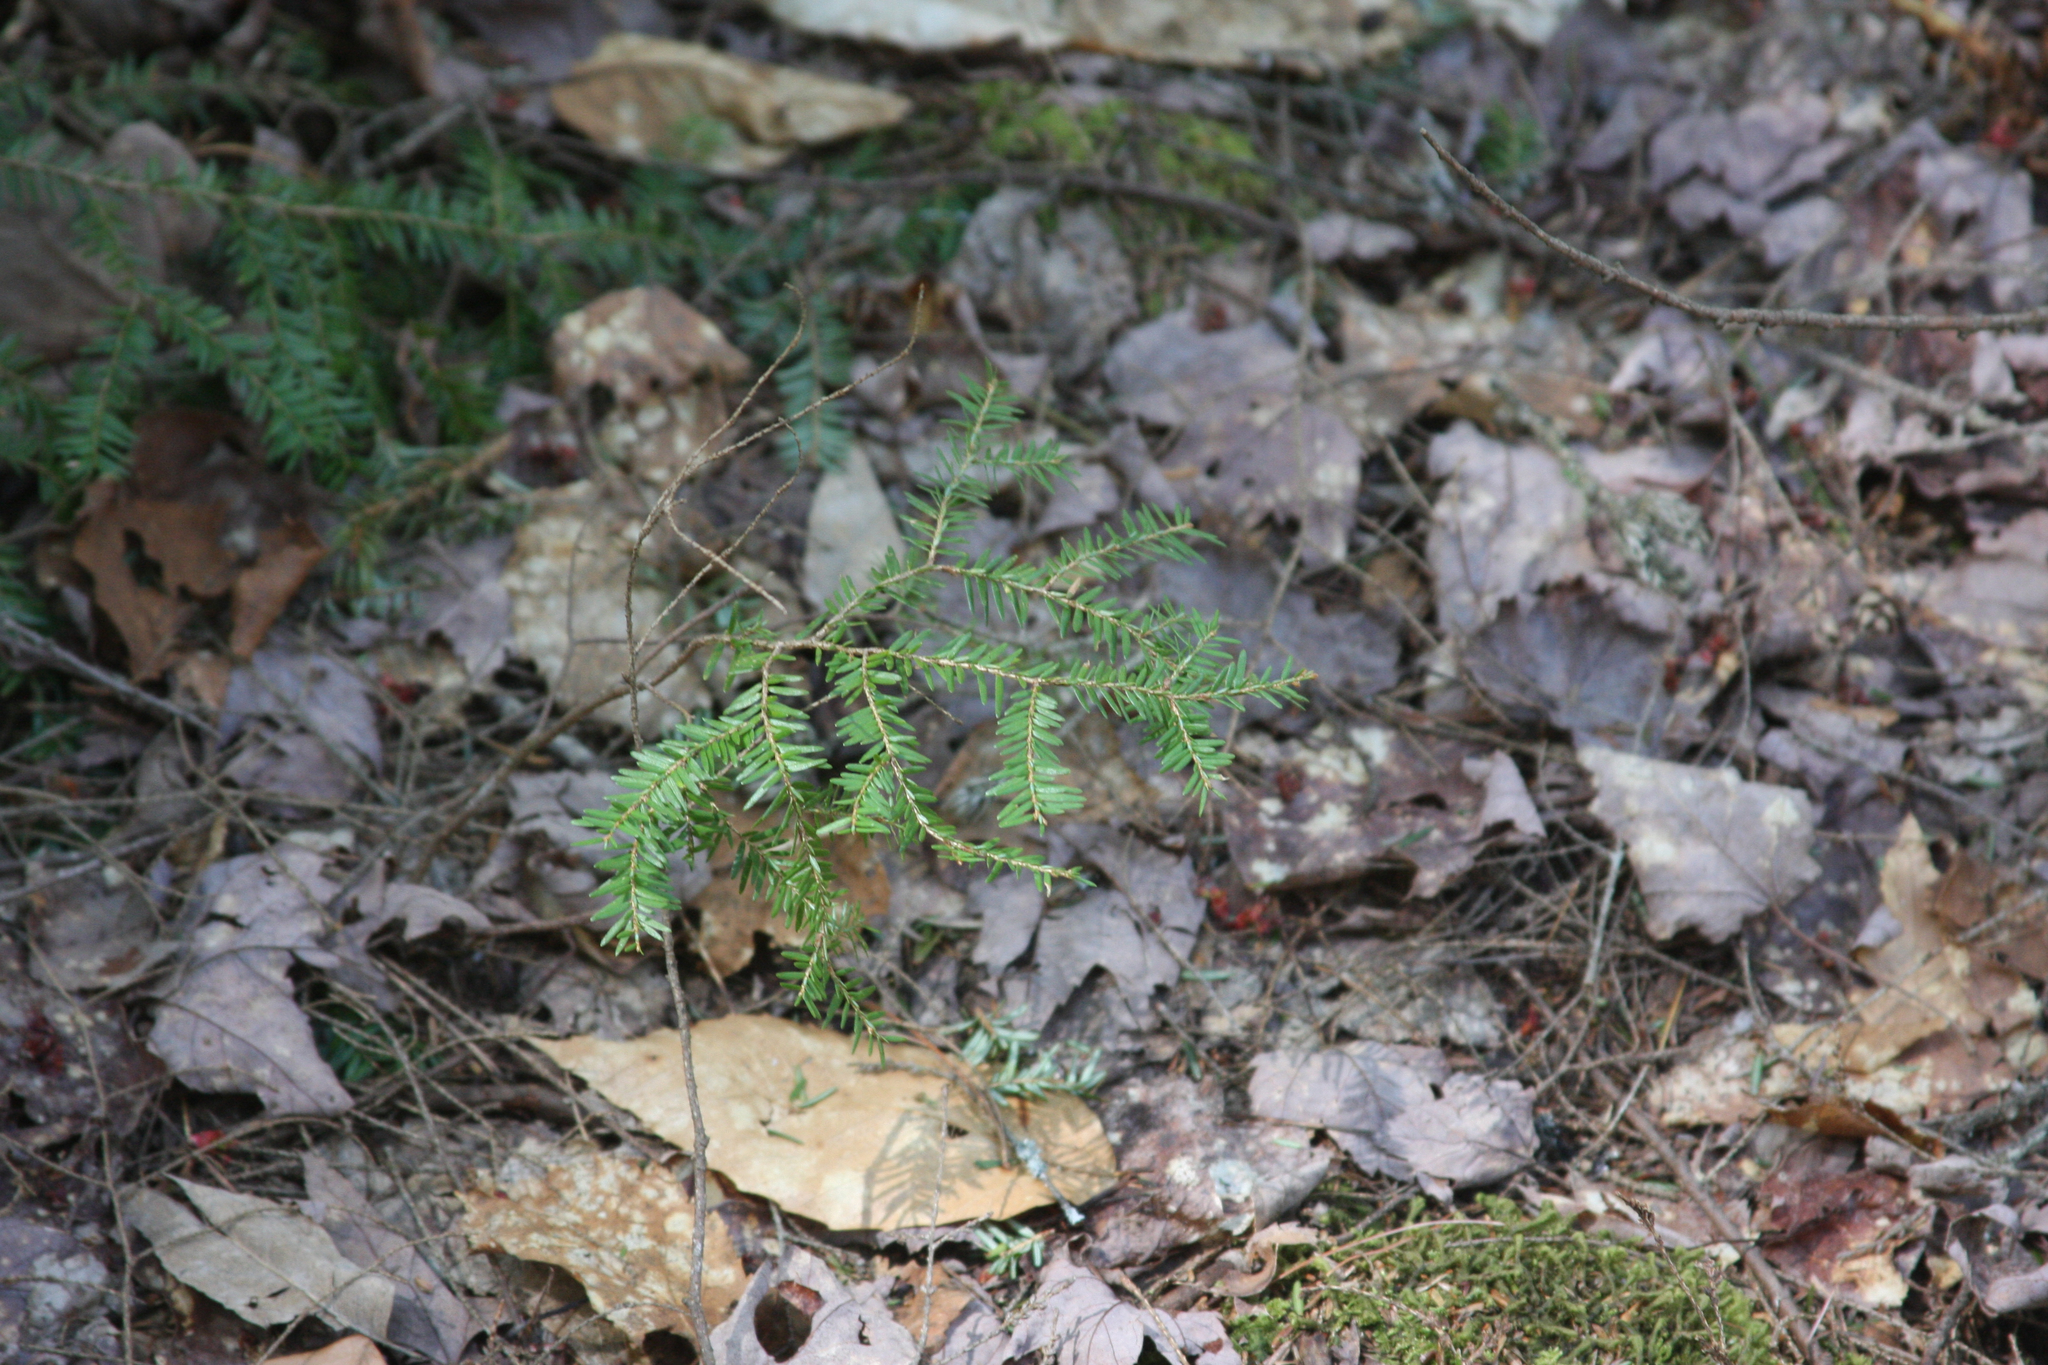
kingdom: Plantae
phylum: Tracheophyta
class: Pinopsida
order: Pinales
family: Pinaceae
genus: Tsuga
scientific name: Tsuga canadensis
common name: Eastern hemlock
